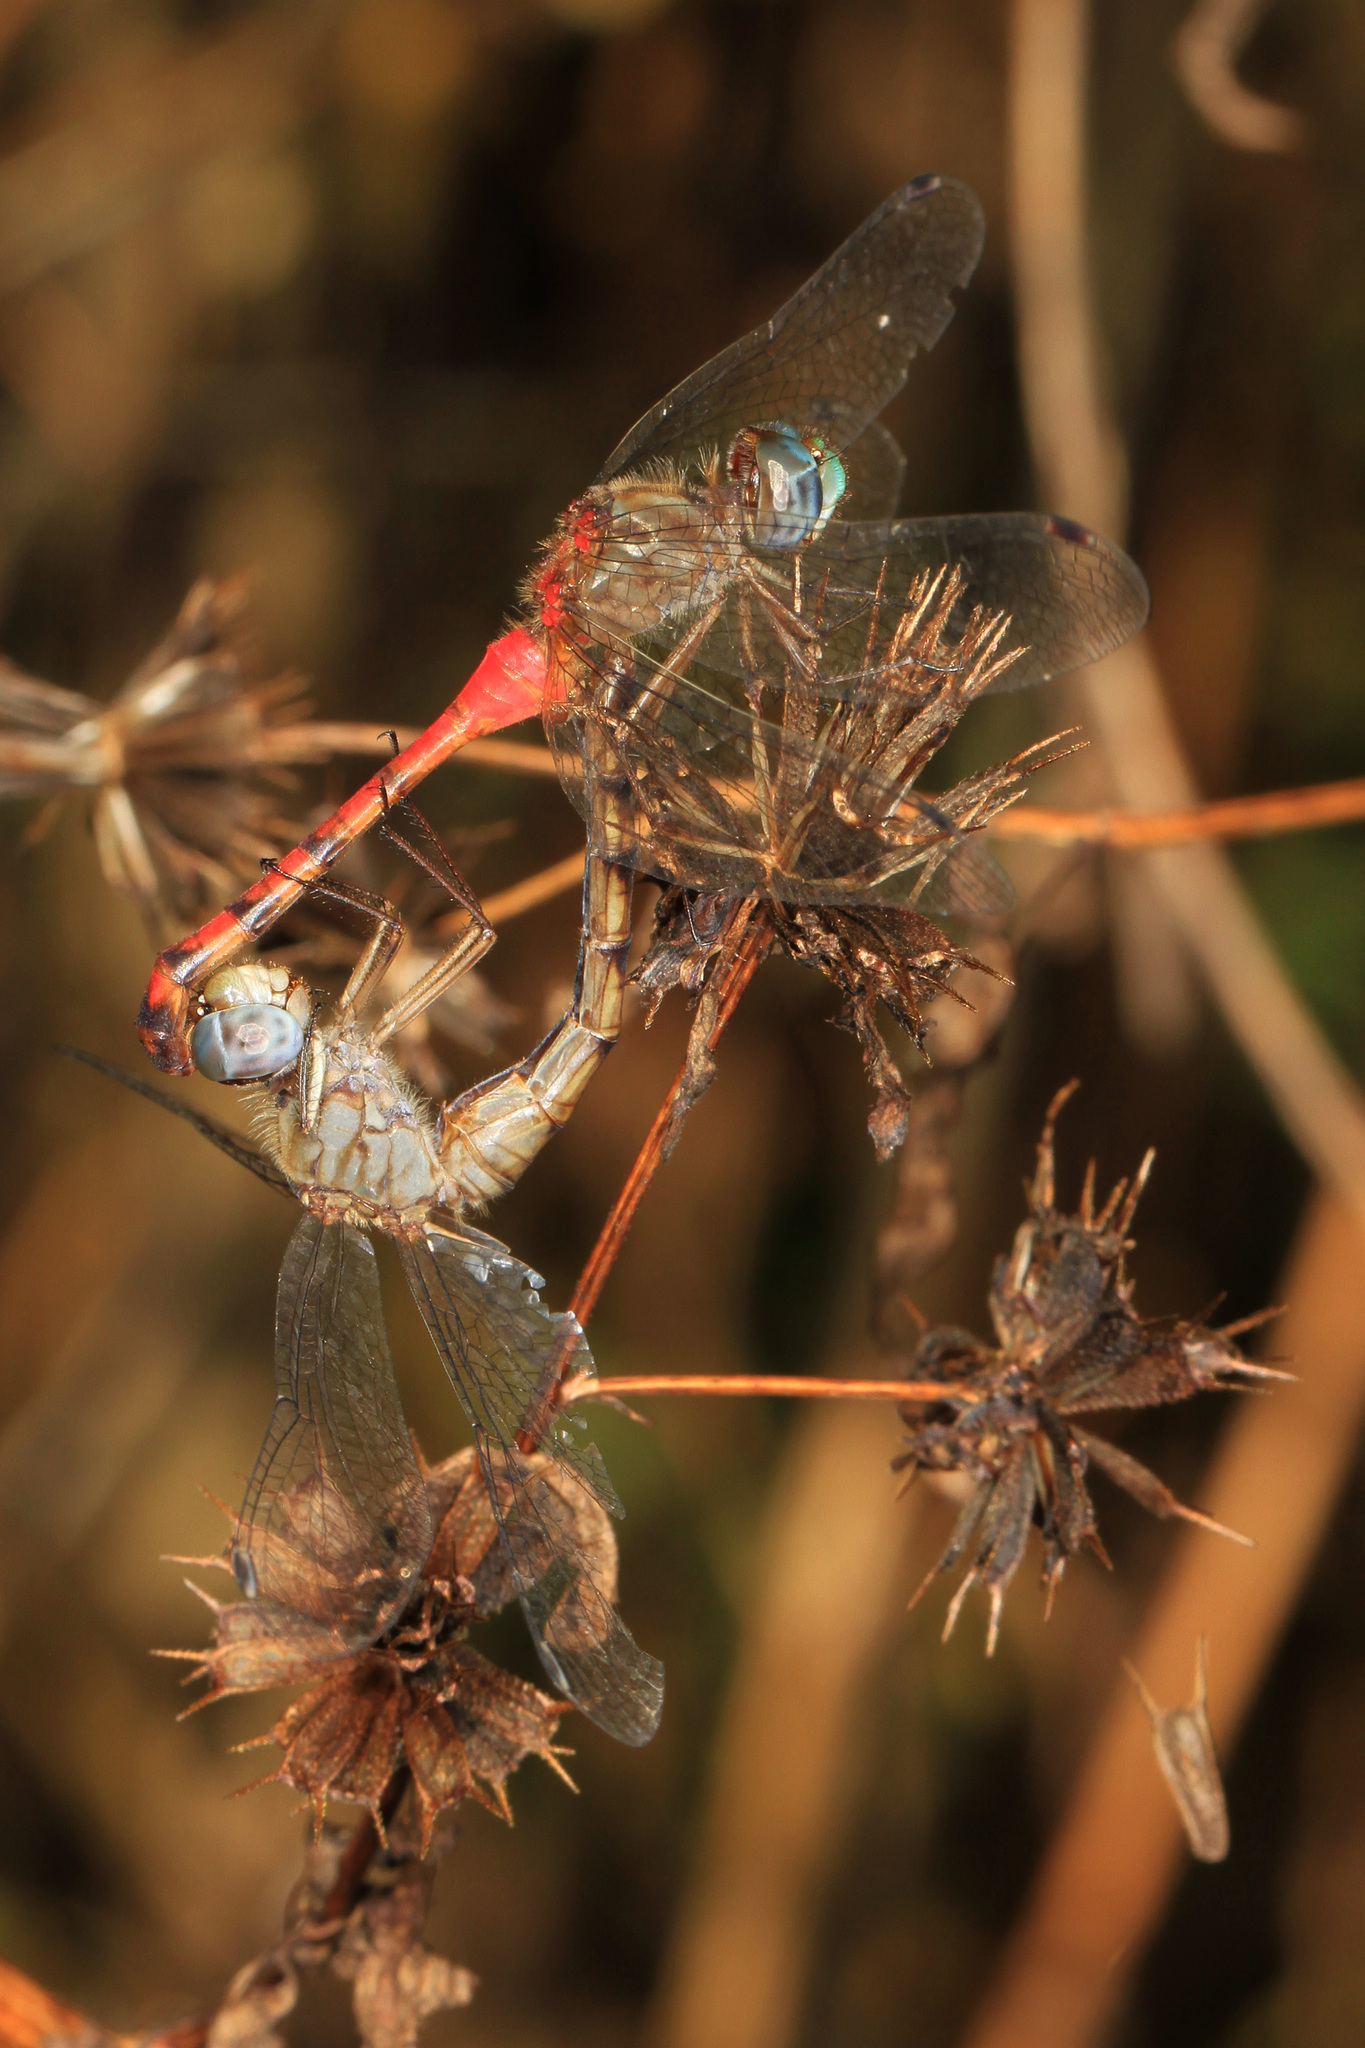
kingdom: Animalia
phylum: Arthropoda
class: Insecta
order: Odonata
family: Libellulidae
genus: Sympetrum
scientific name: Sympetrum ambiguum
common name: Blue-faced meadowhawk
